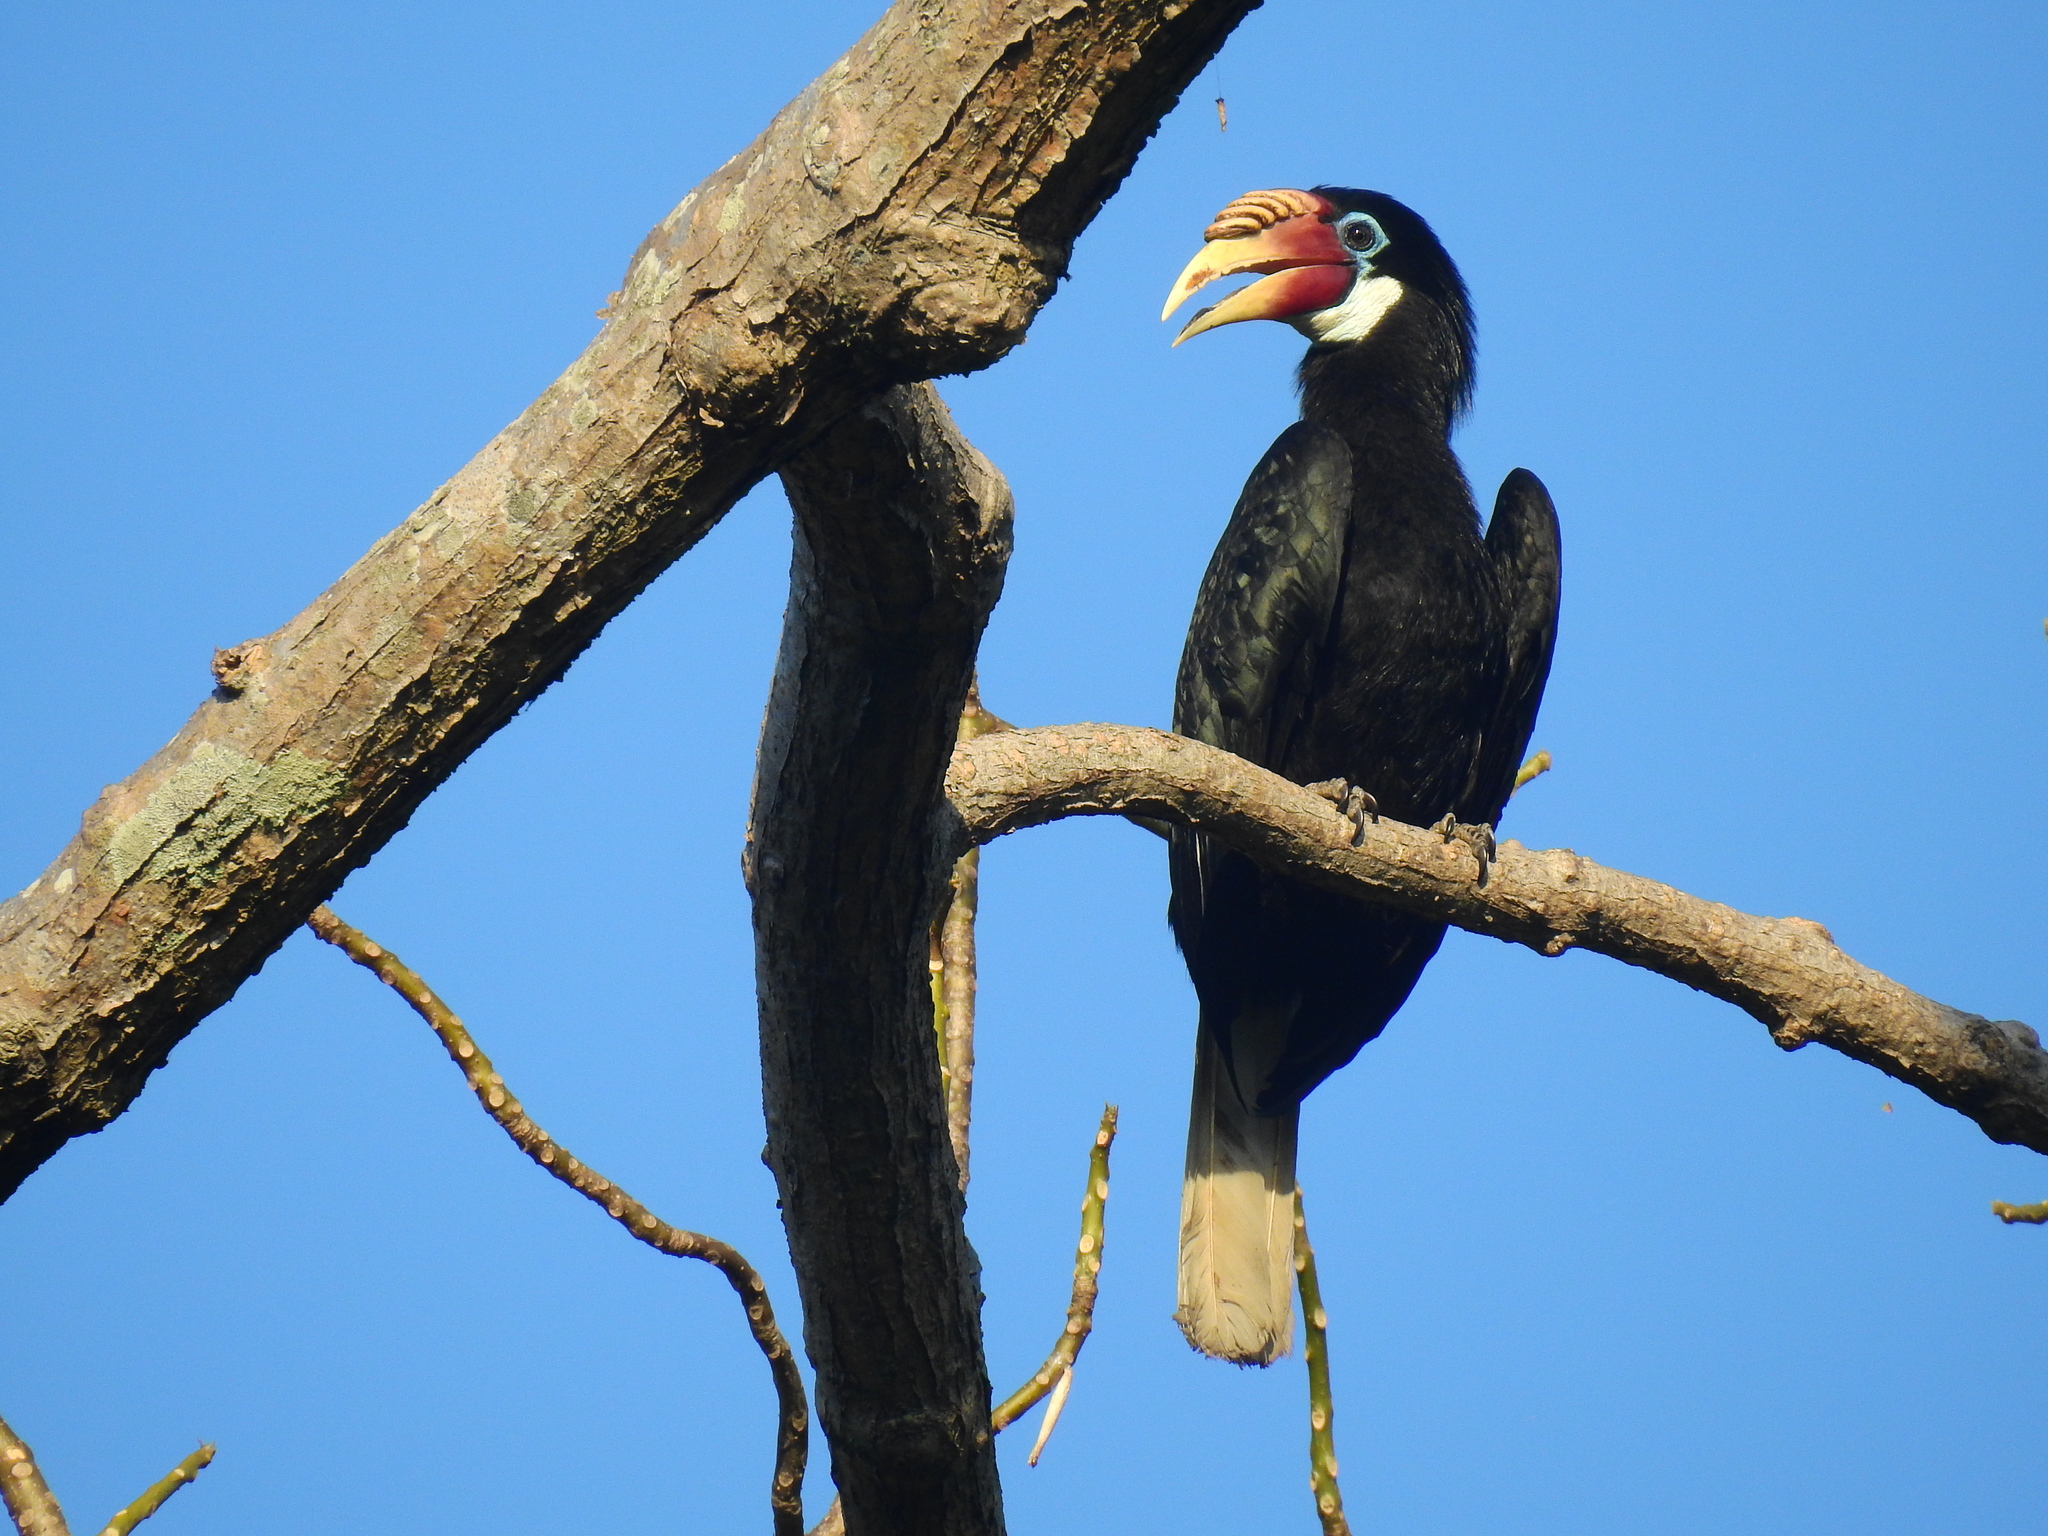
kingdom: Animalia
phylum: Chordata
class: Aves
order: Bucerotiformes
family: Bucerotidae
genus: Rhyticeros
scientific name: Rhyticeros narcondami
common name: Narcondam hornbill
